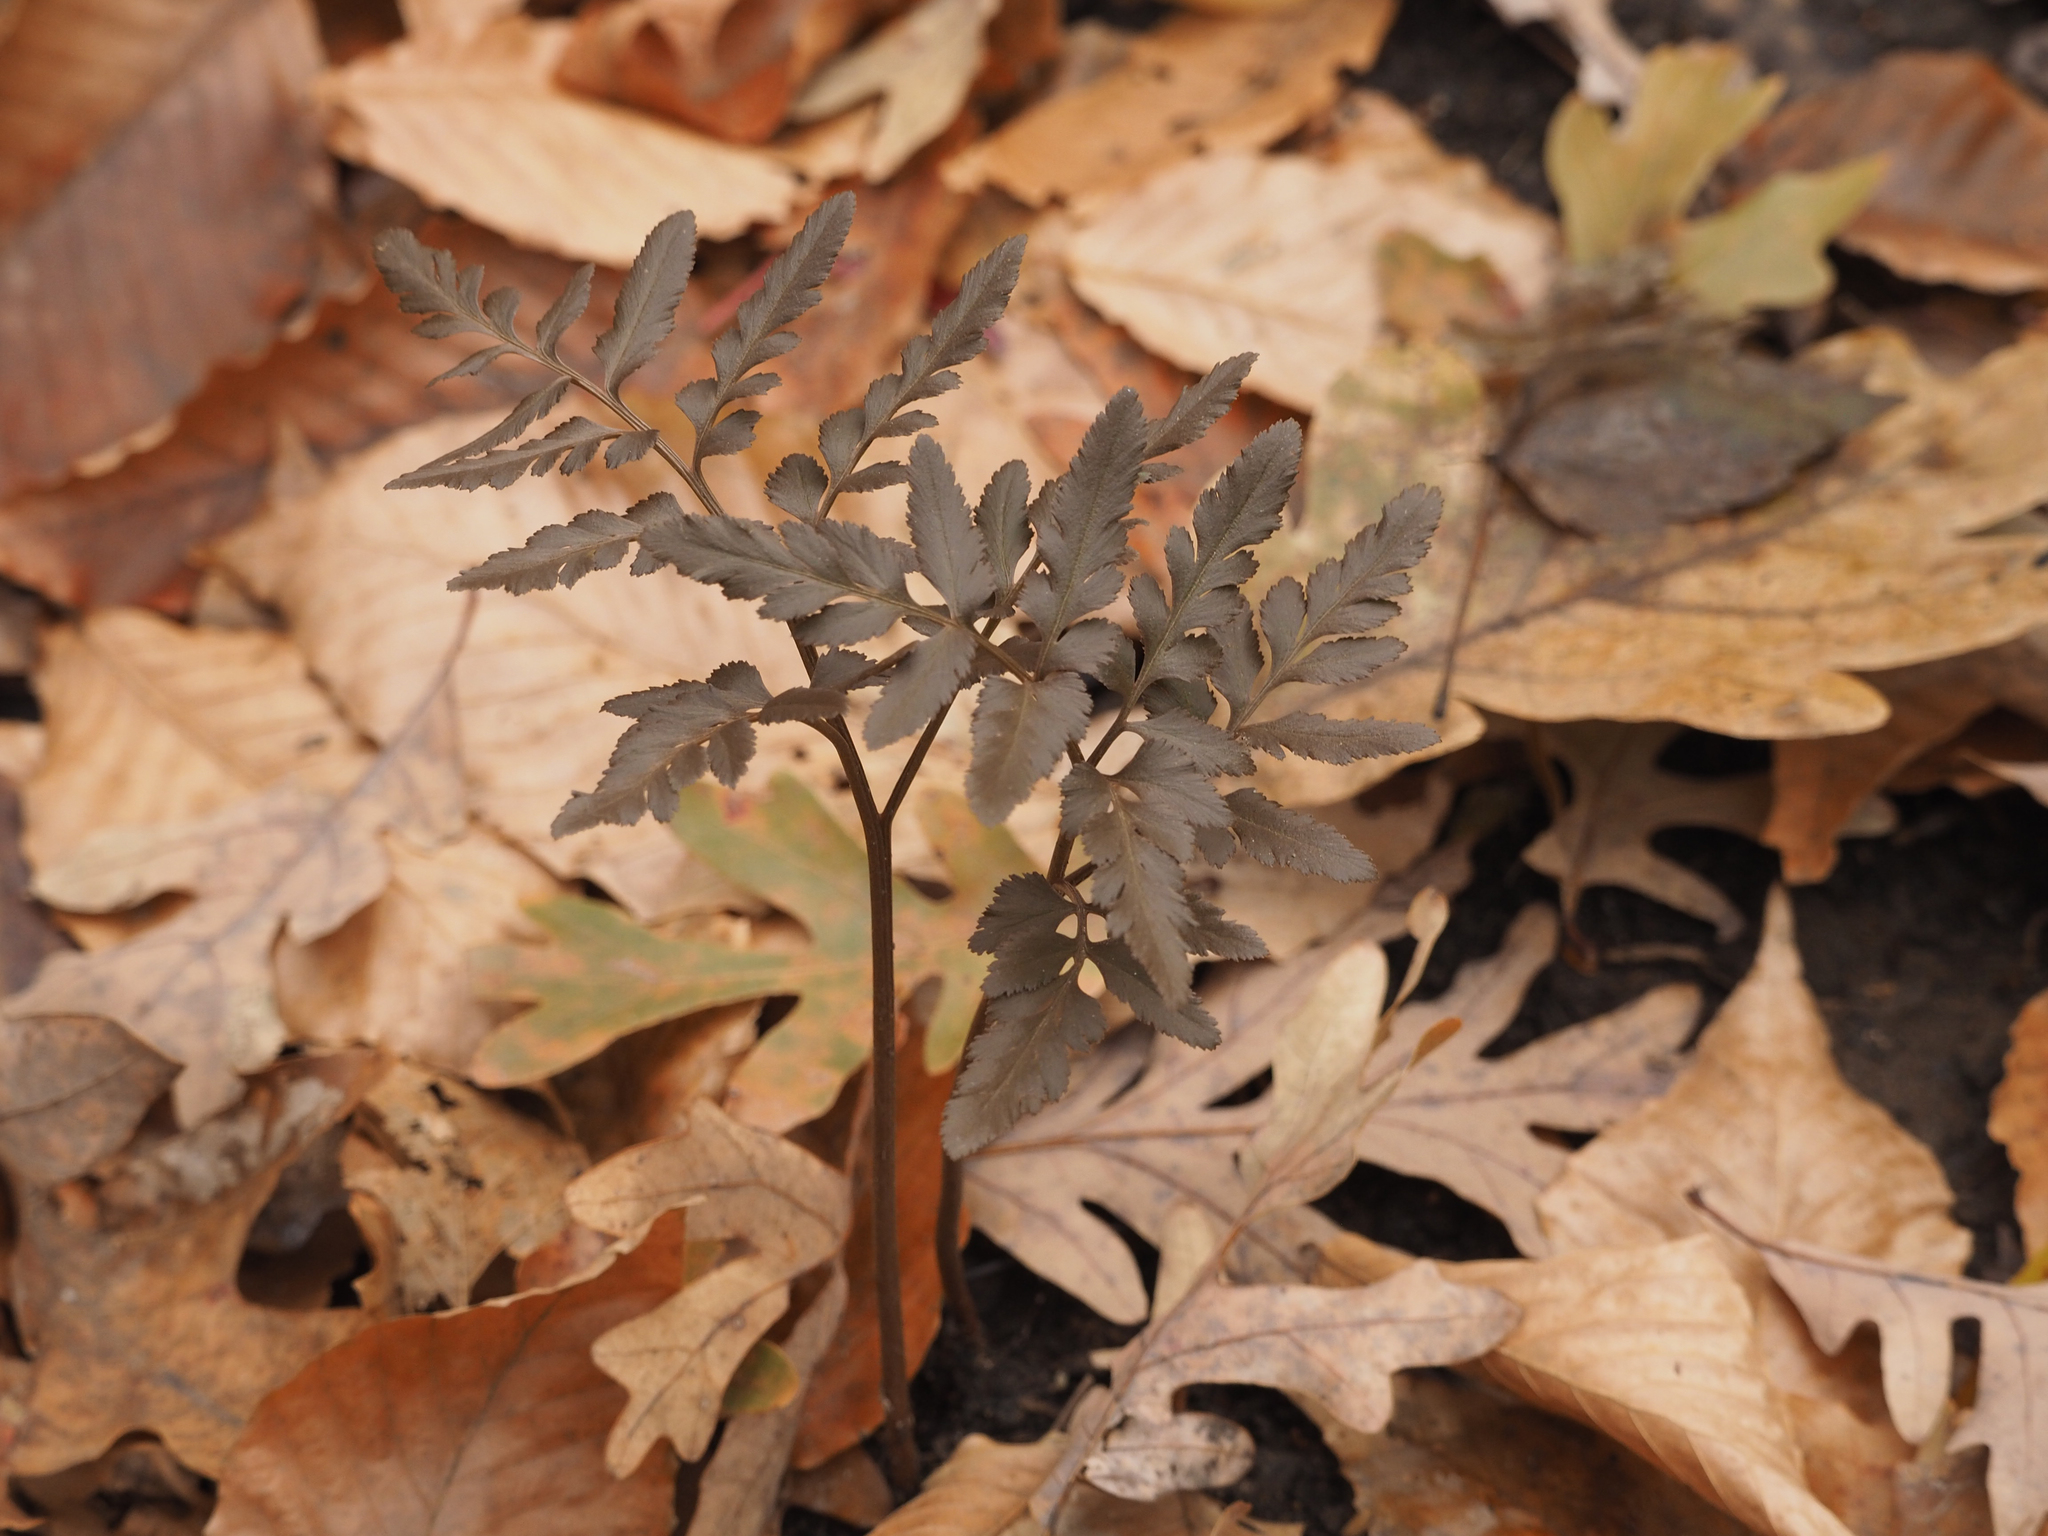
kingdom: Plantae
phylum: Tracheophyta
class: Polypodiopsida
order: Ophioglossales
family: Ophioglossaceae
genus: Sceptridium
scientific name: Sceptridium dissectum
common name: Cut-leaved grapefern
